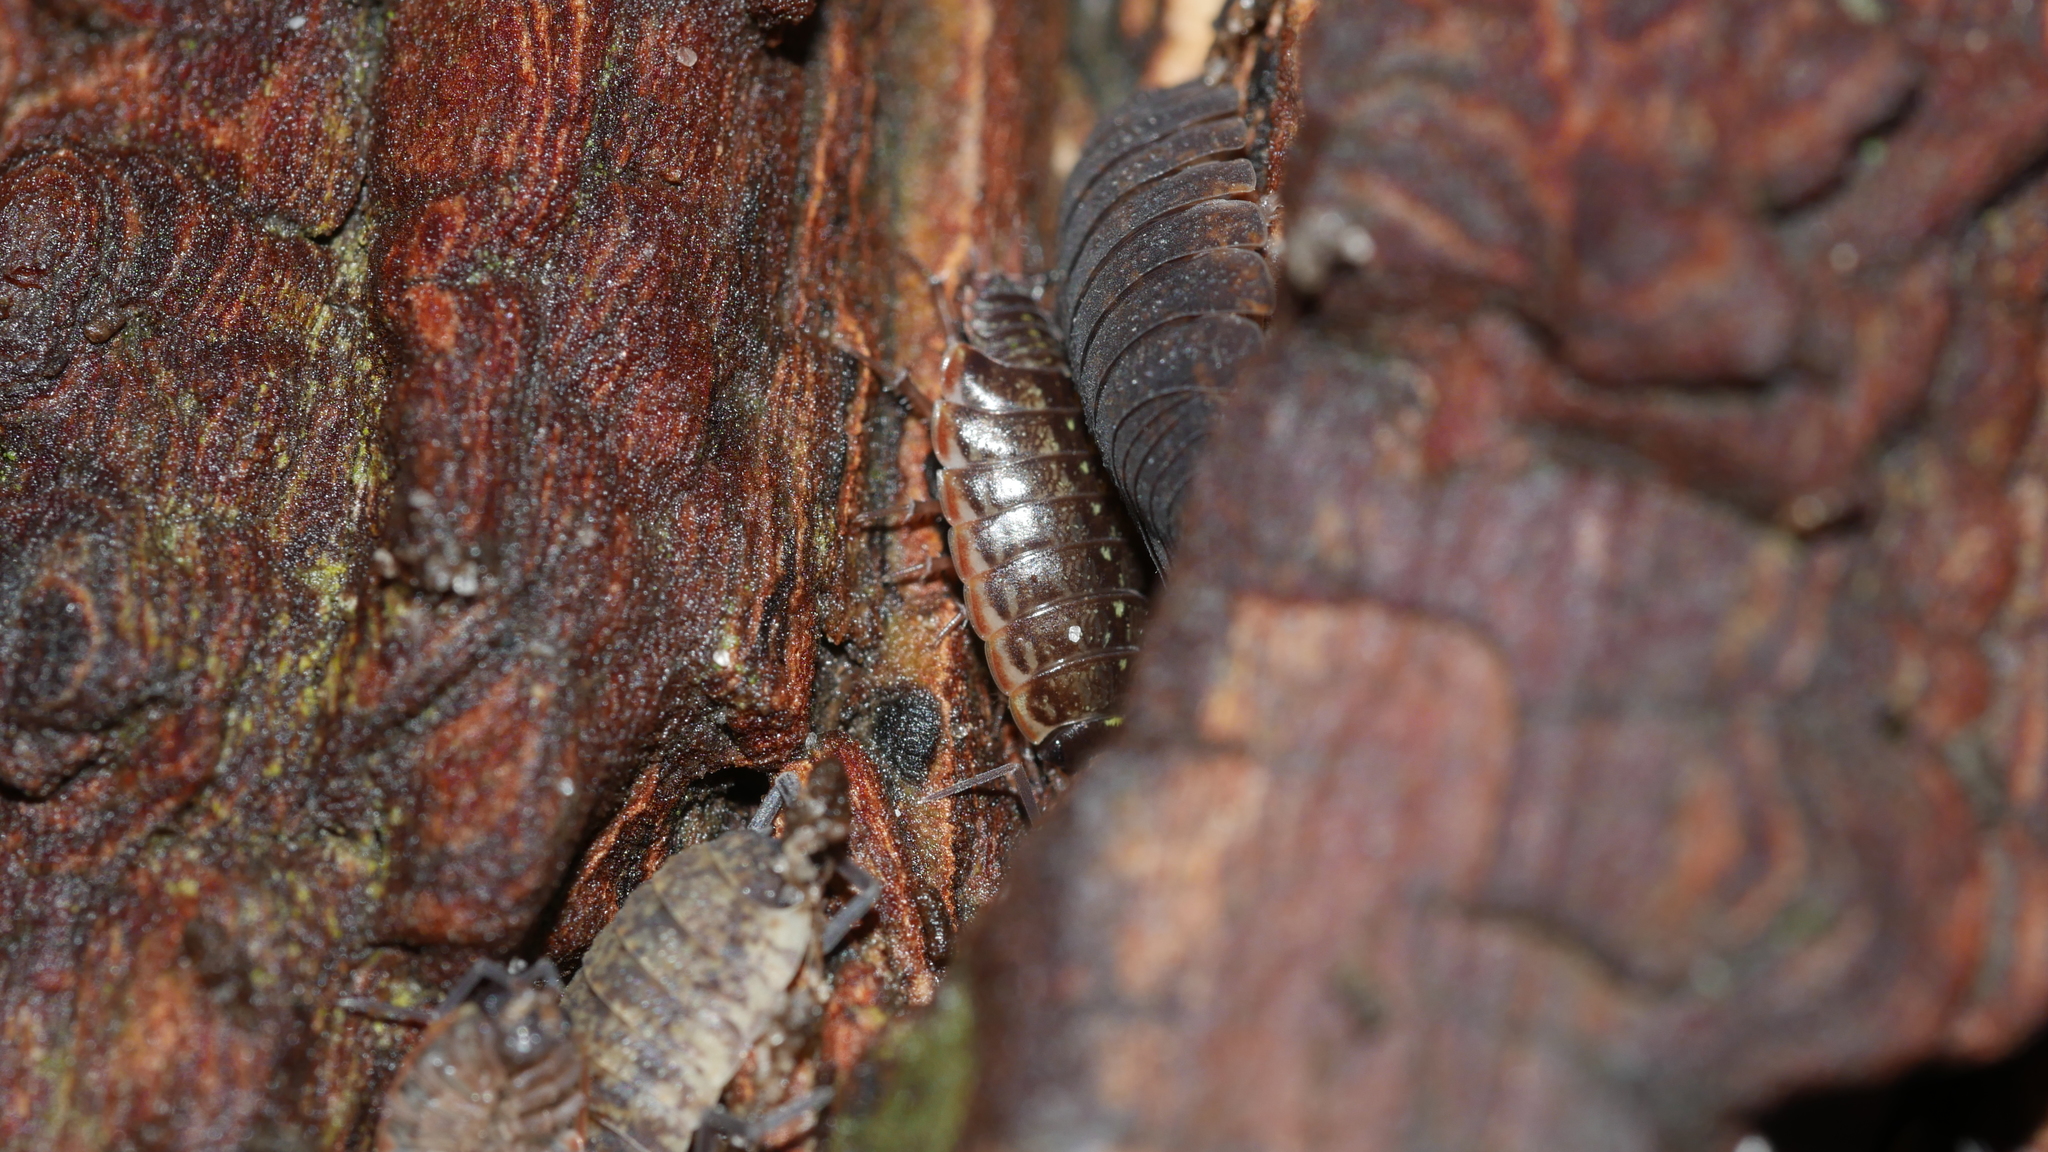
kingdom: Animalia
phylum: Arthropoda
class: Malacostraca
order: Isopoda
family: Philosciidae
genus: Philoscia
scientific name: Philoscia muscorum
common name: Common striped woodlouse
